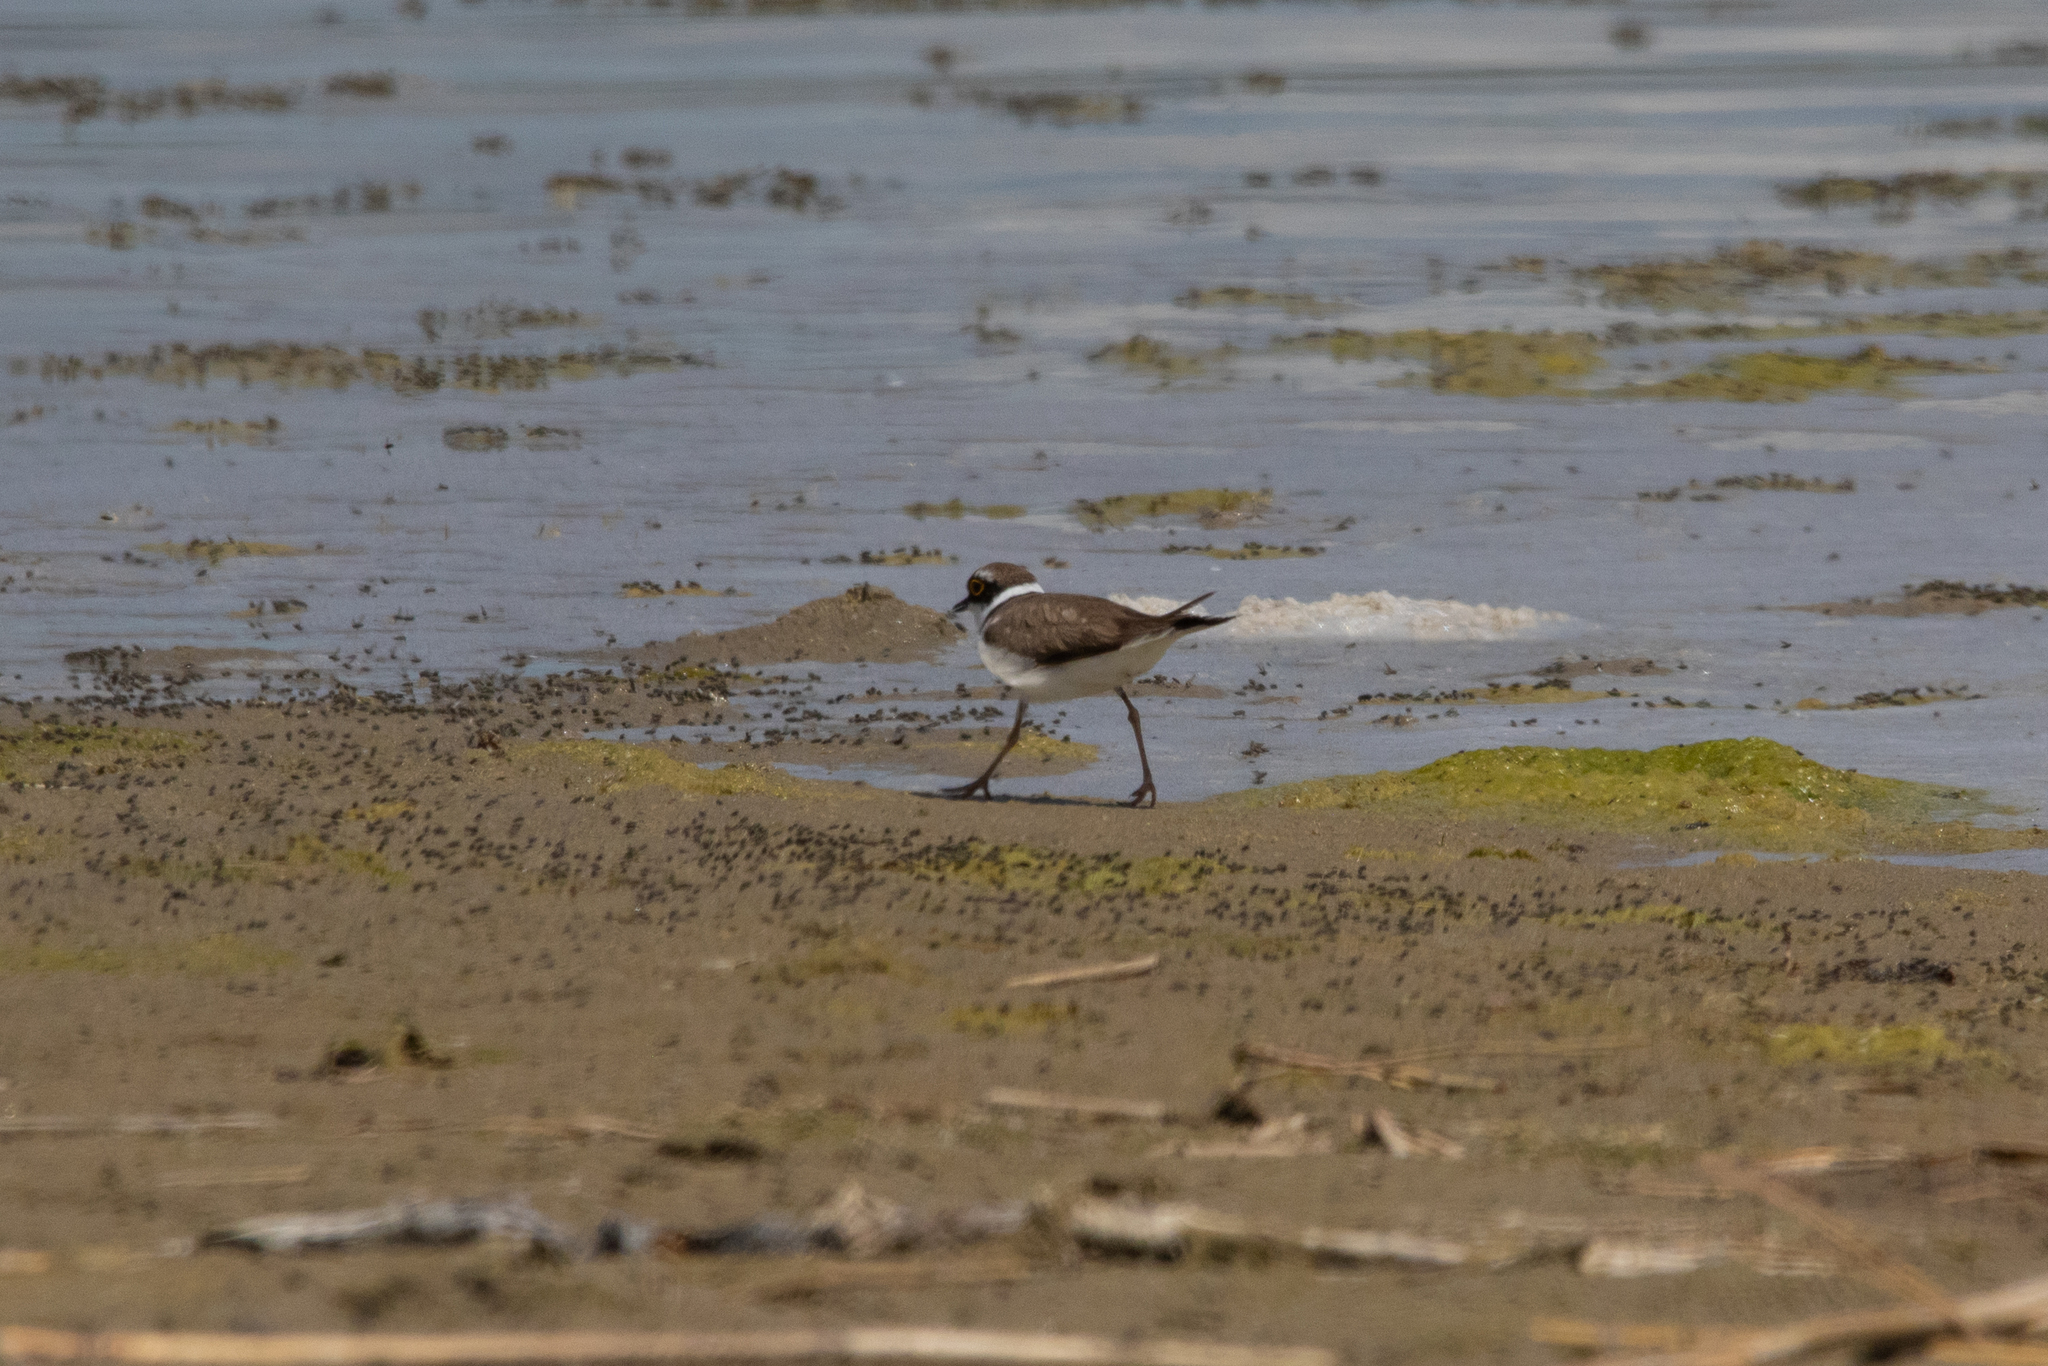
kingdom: Animalia
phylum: Chordata
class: Aves
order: Charadriiformes
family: Charadriidae
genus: Charadrius
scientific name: Charadrius dubius
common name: Little ringed plover
